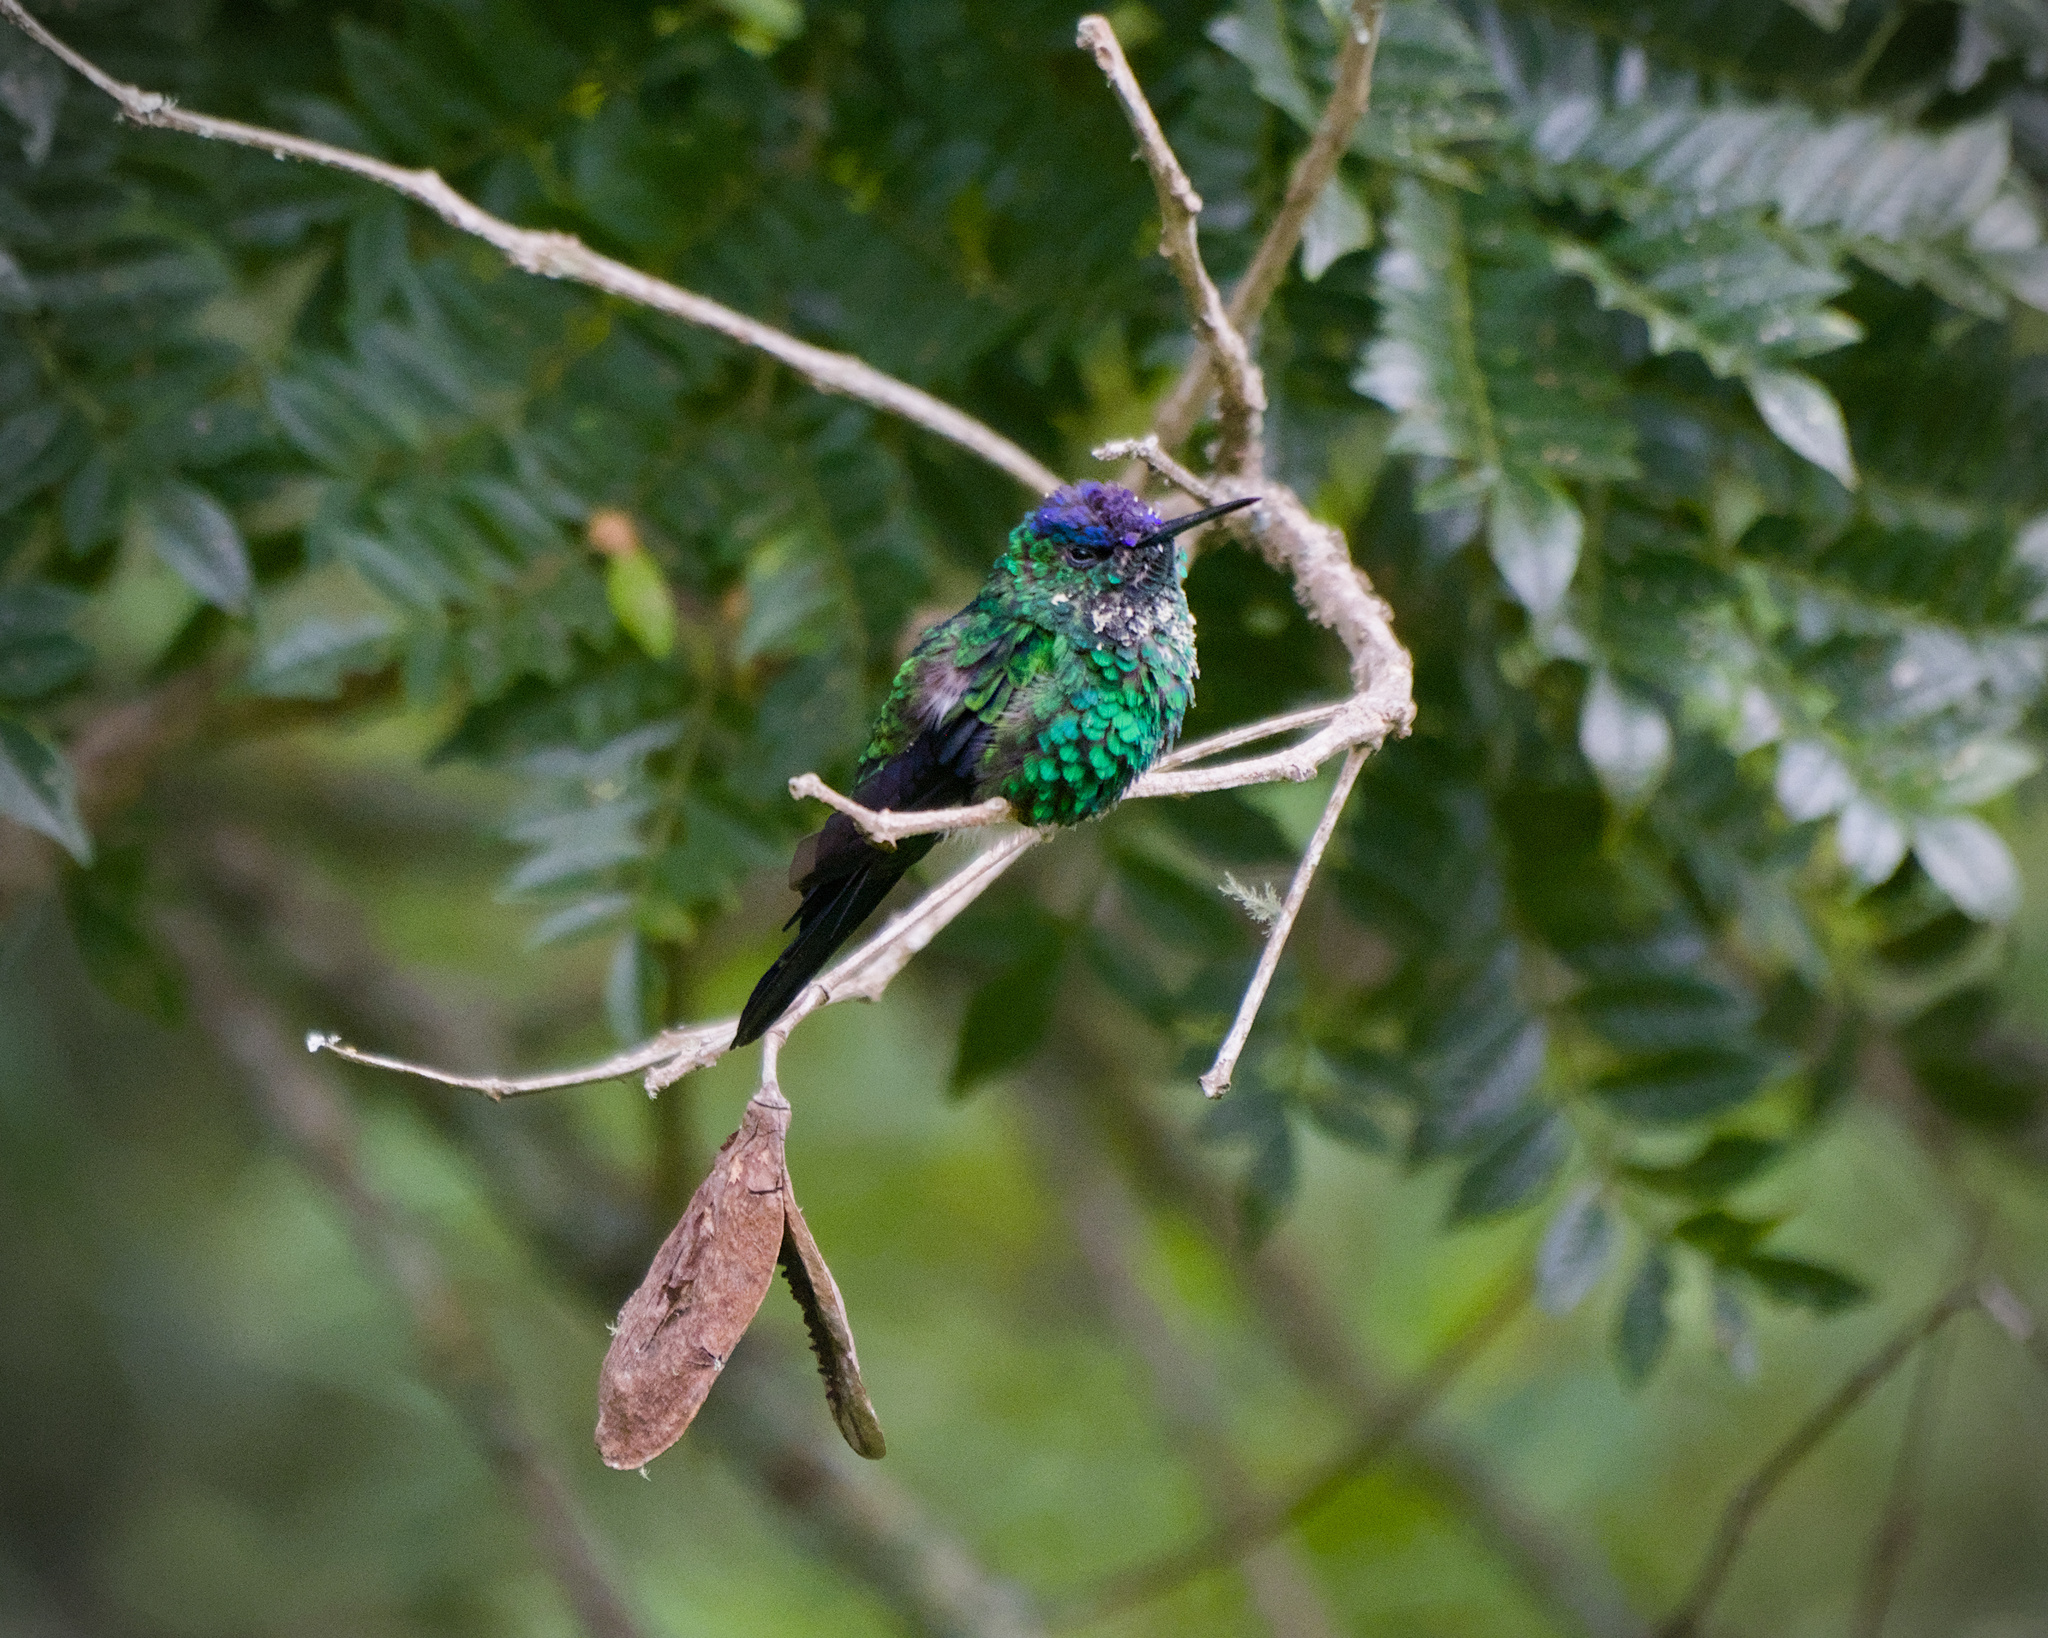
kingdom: Animalia
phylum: Chordata
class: Aves
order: Apodiformes
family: Trochilidae
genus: Thalurania
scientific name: Thalurania glaucopis
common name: Violet-capped woodnymph
